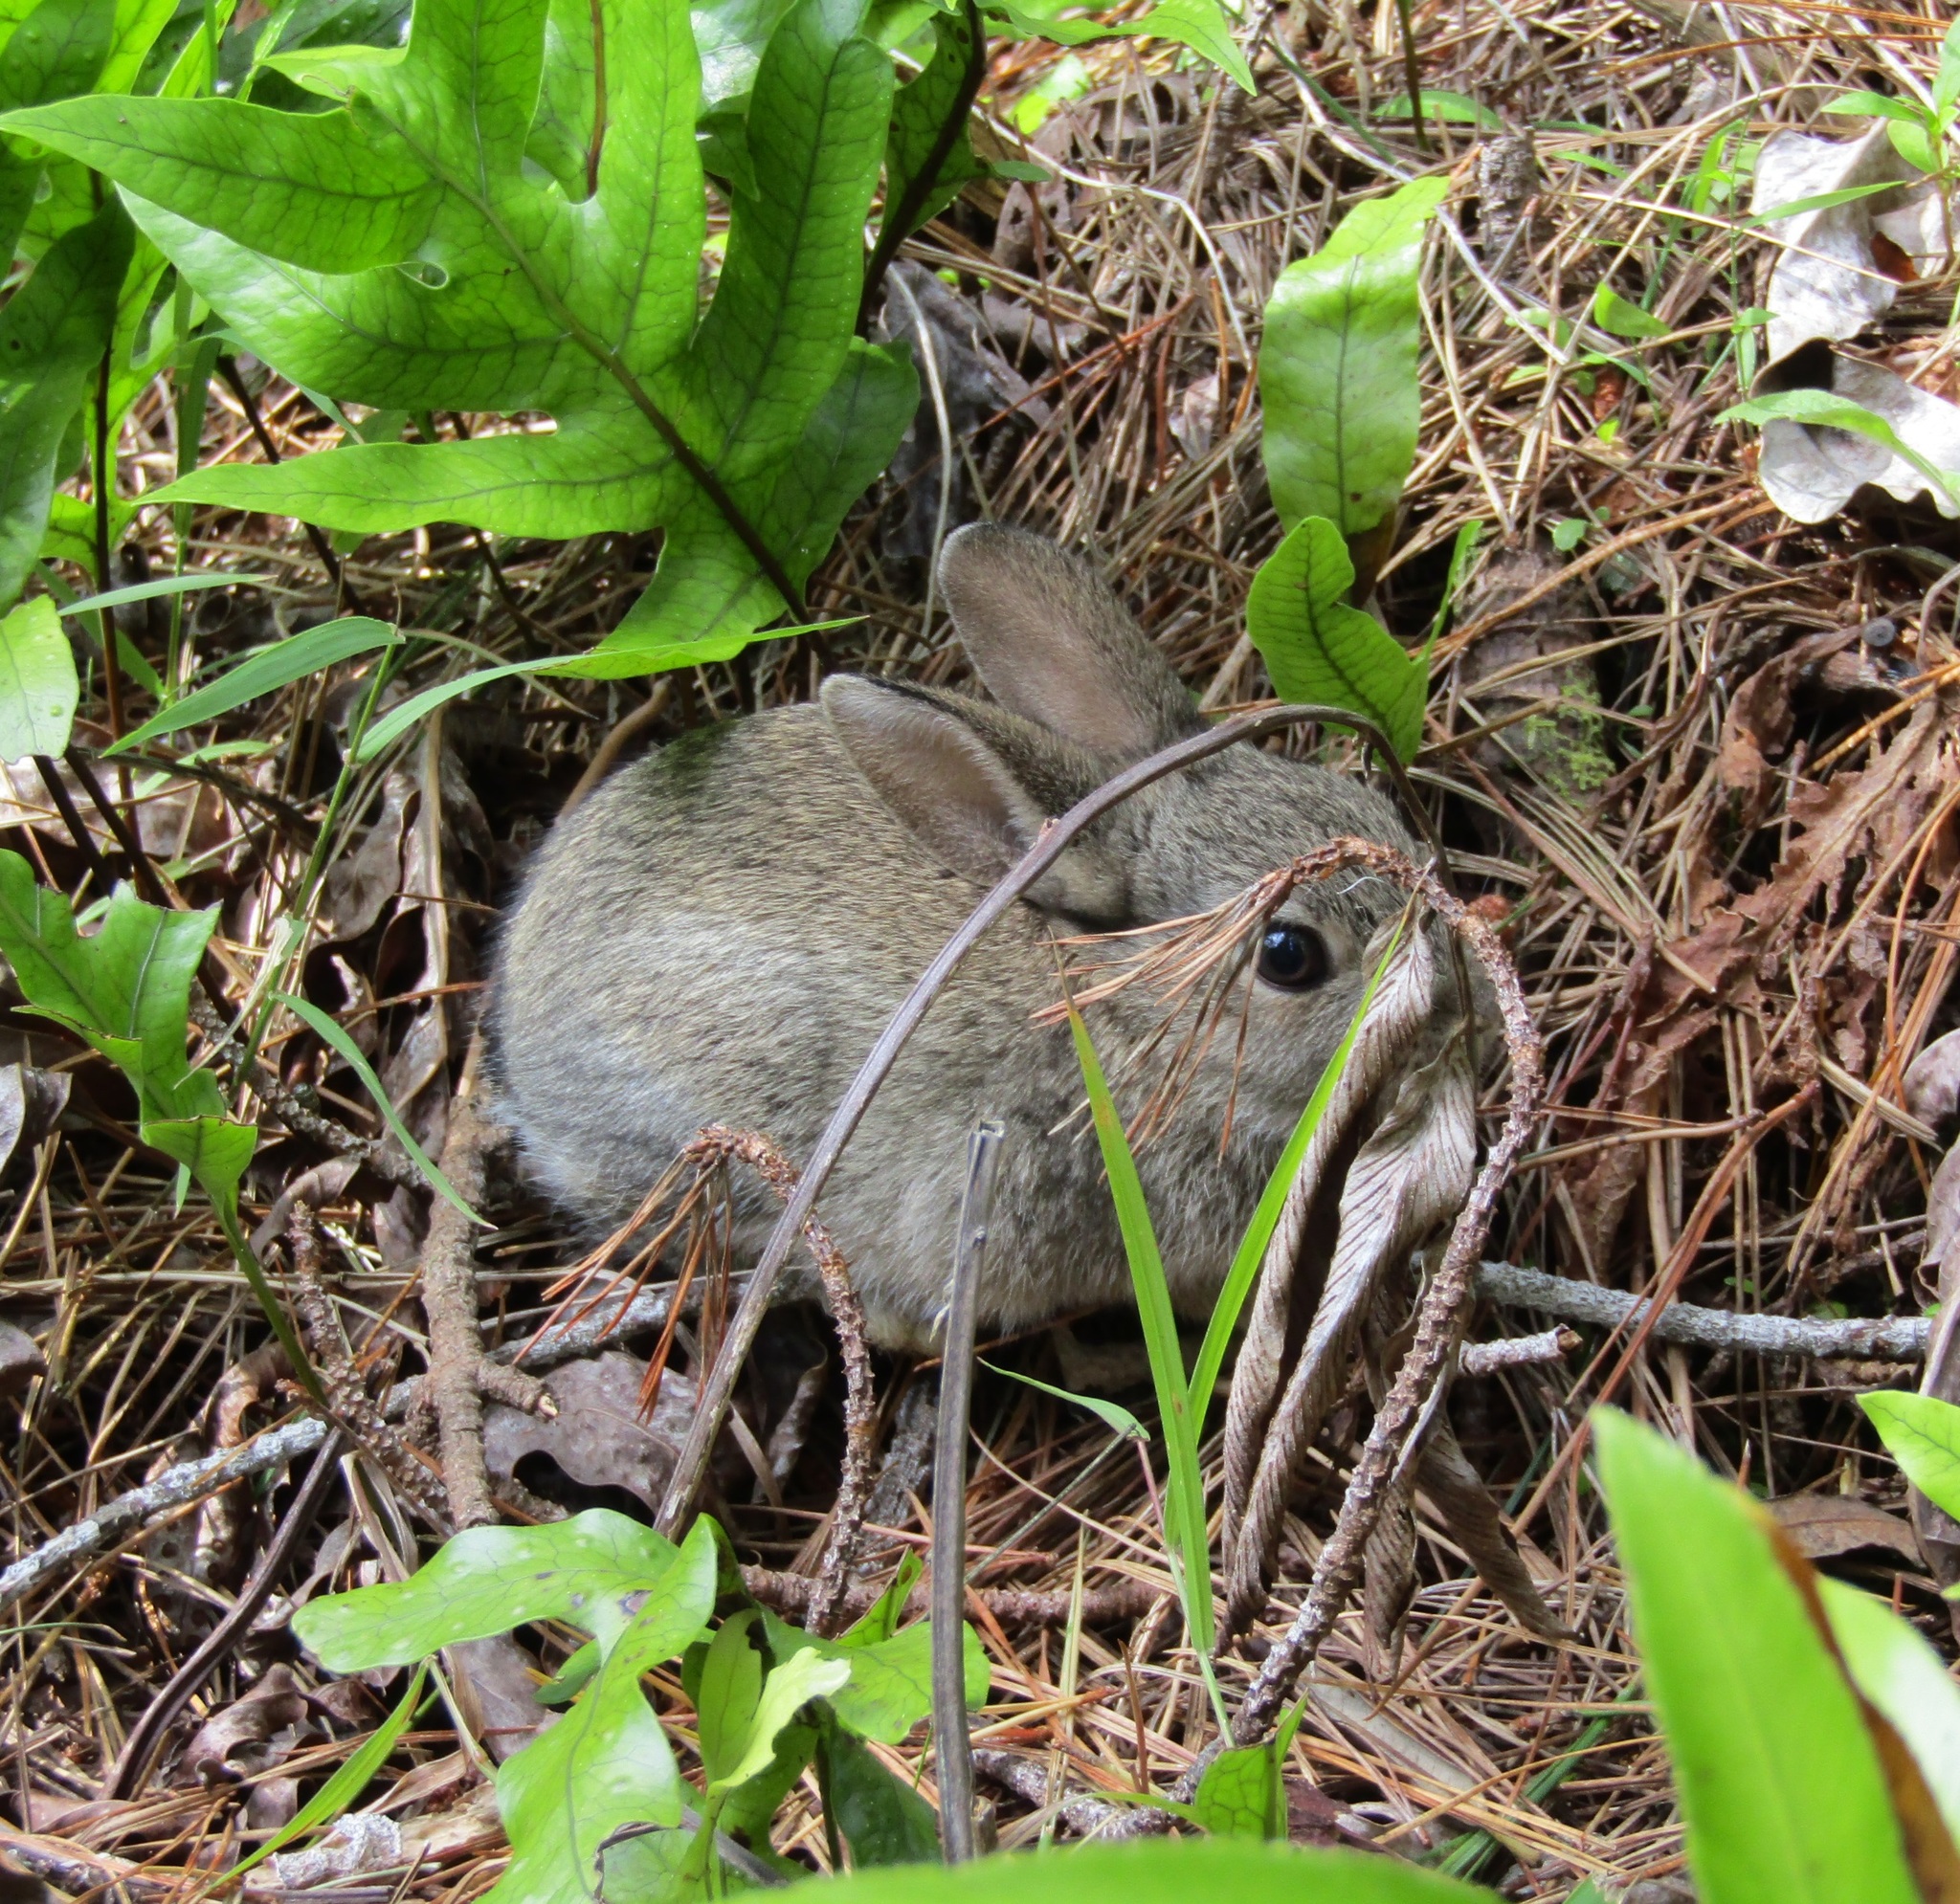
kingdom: Animalia
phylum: Chordata
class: Mammalia
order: Lagomorpha
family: Leporidae
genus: Oryctolagus
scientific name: Oryctolagus cuniculus
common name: European rabbit
